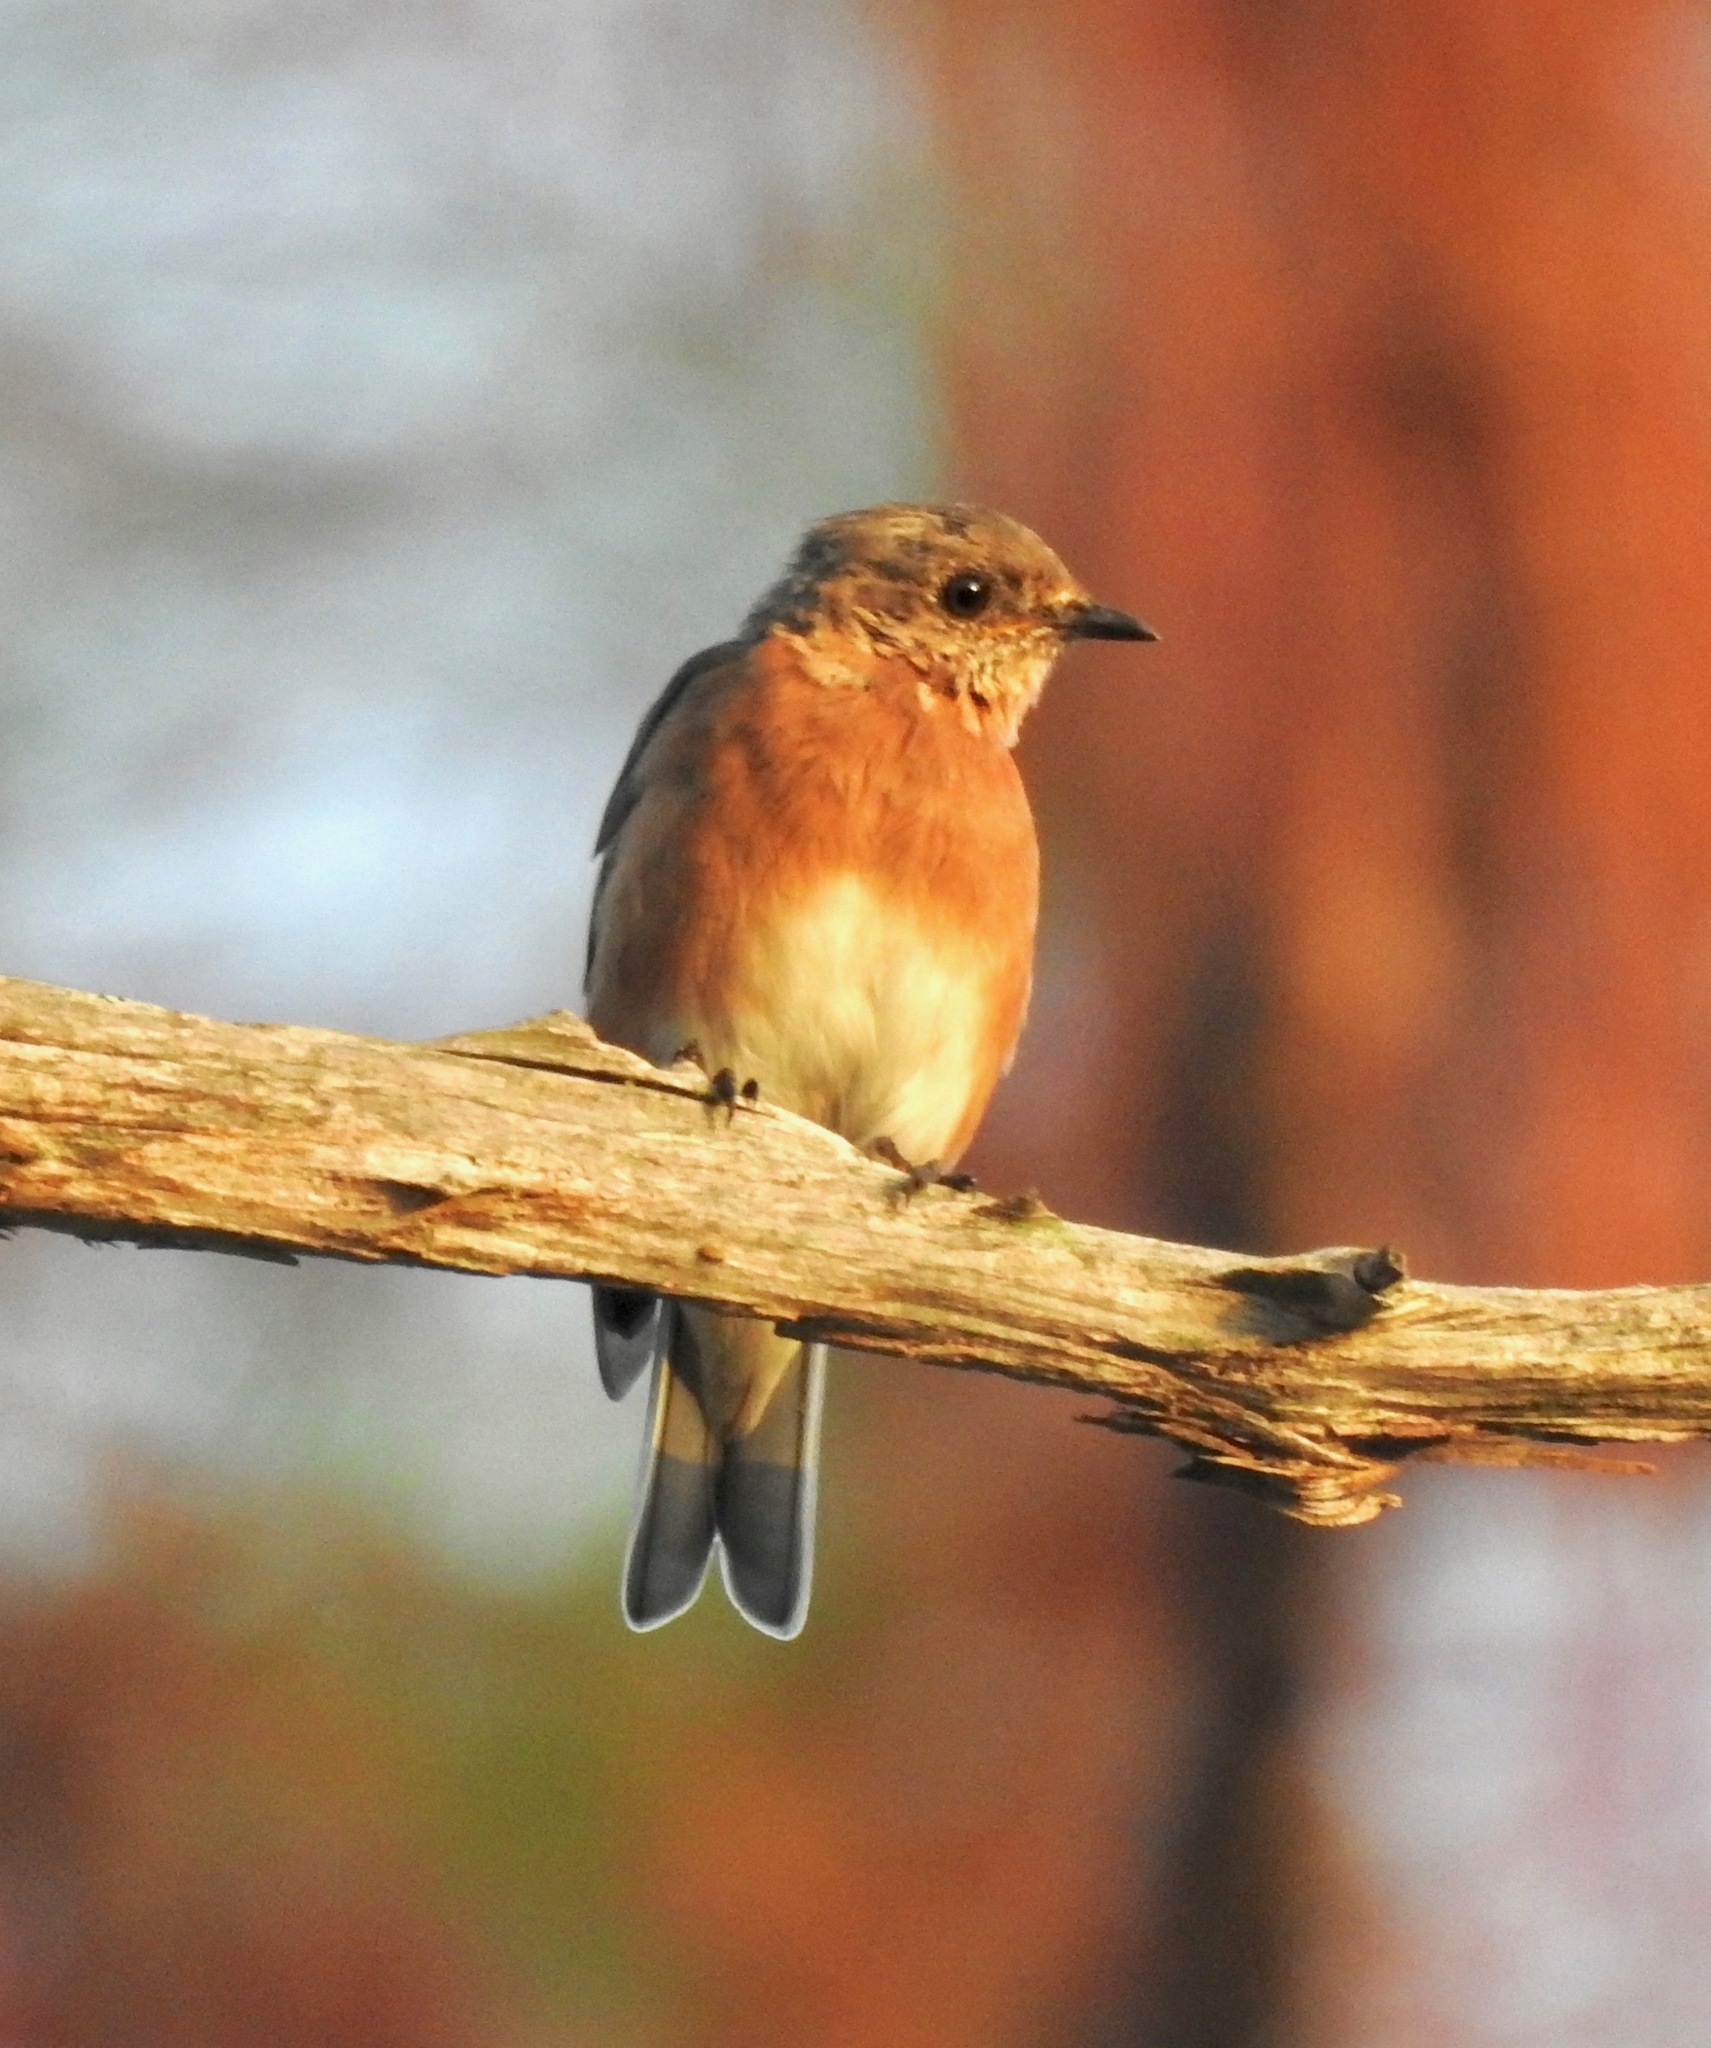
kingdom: Animalia
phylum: Chordata
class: Aves
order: Passeriformes
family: Turdidae
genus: Sialia
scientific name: Sialia sialis
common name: Eastern bluebird
